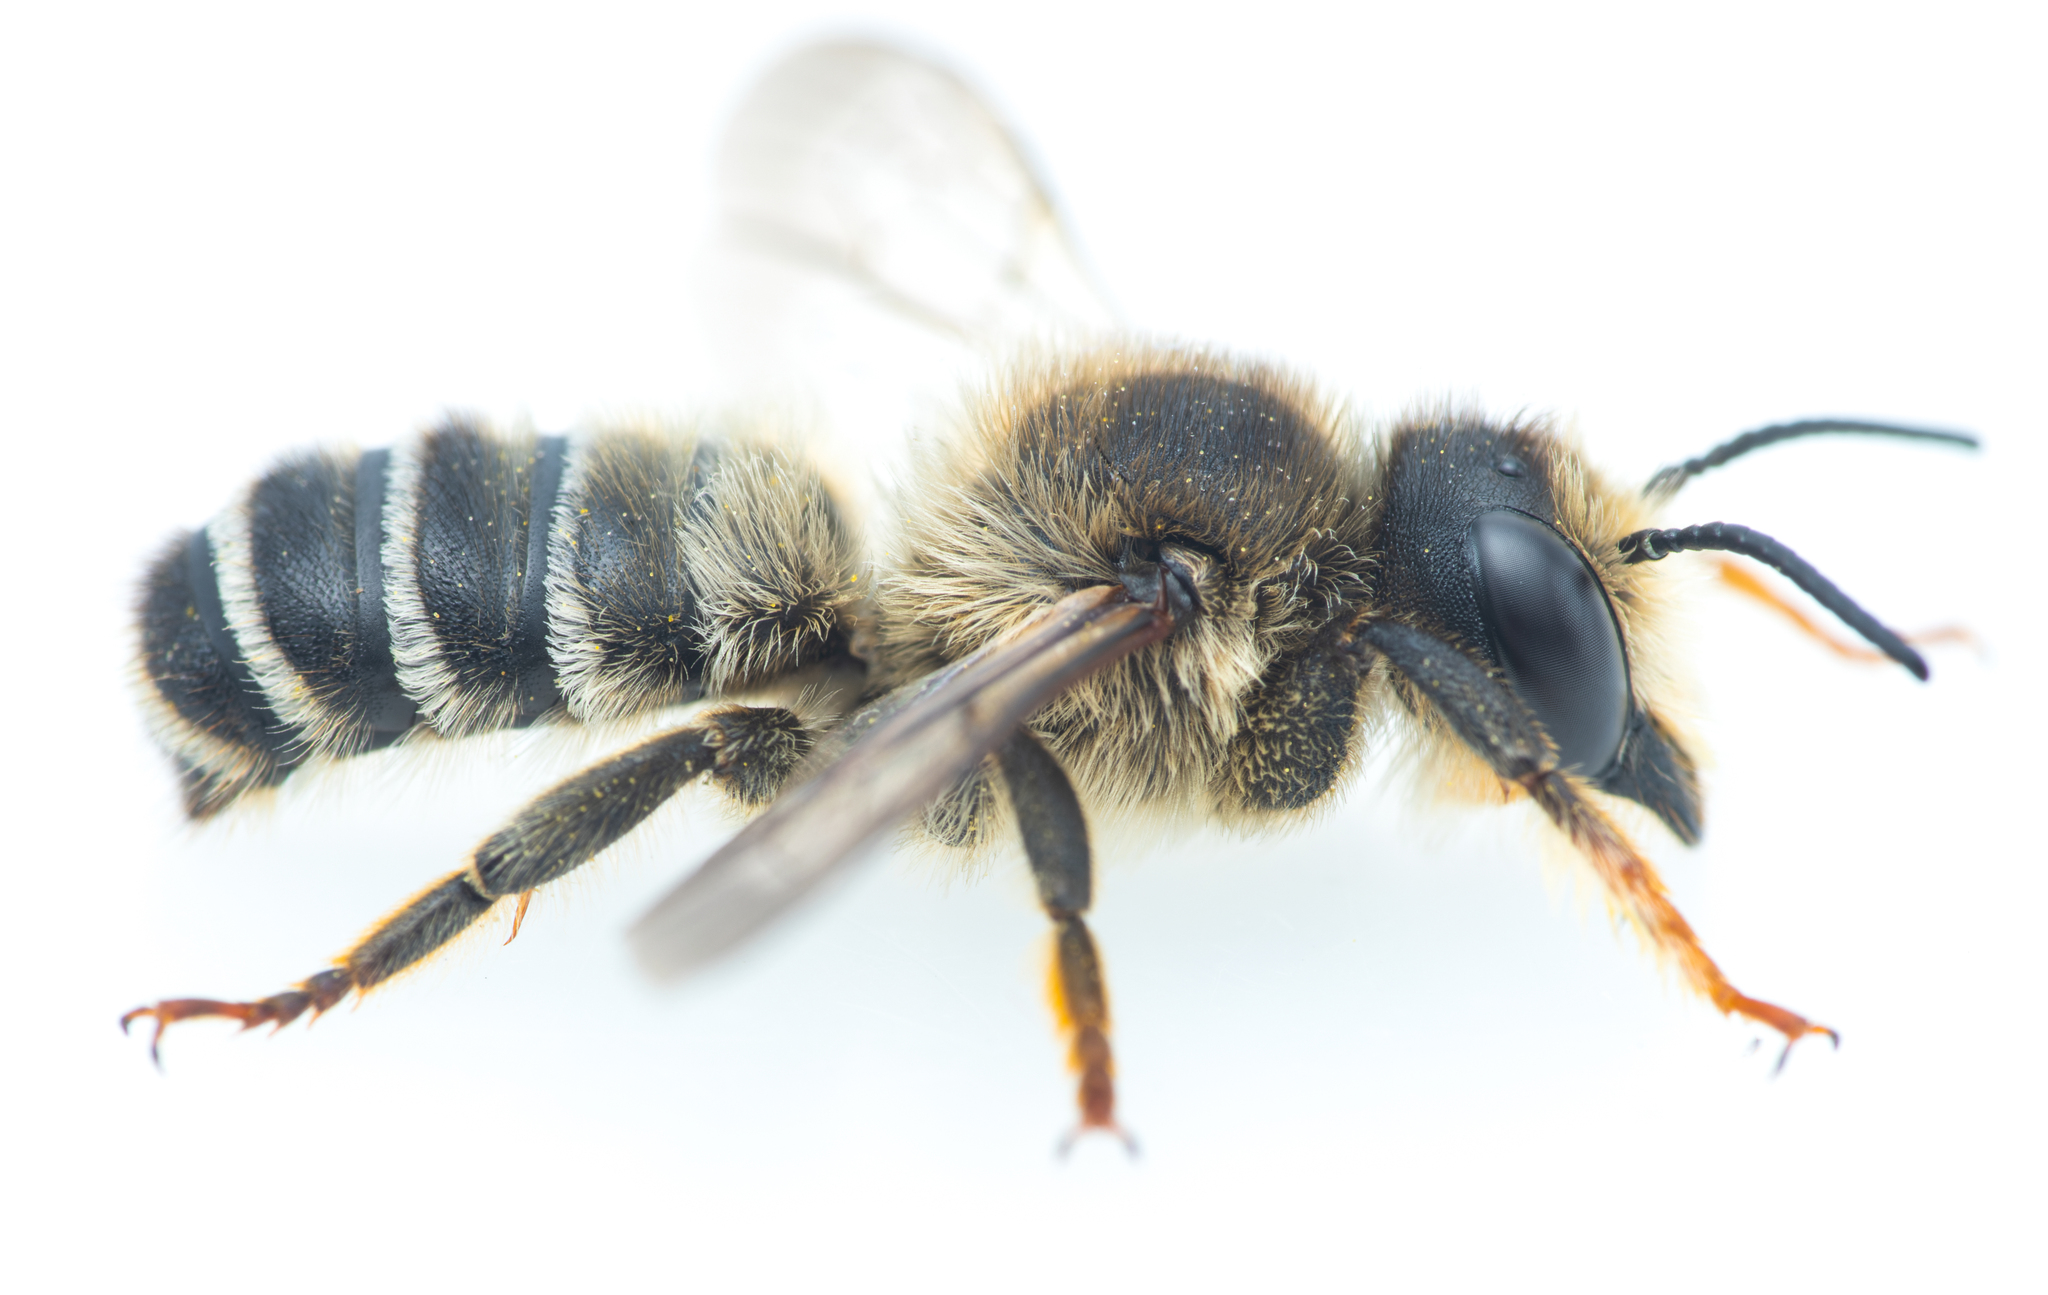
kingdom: Animalia
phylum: Arthropoda
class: Insecta
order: Hymenoptera
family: Megachilidae
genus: Megachile
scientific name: Megachile ericetorum
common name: Leafcutter bee
